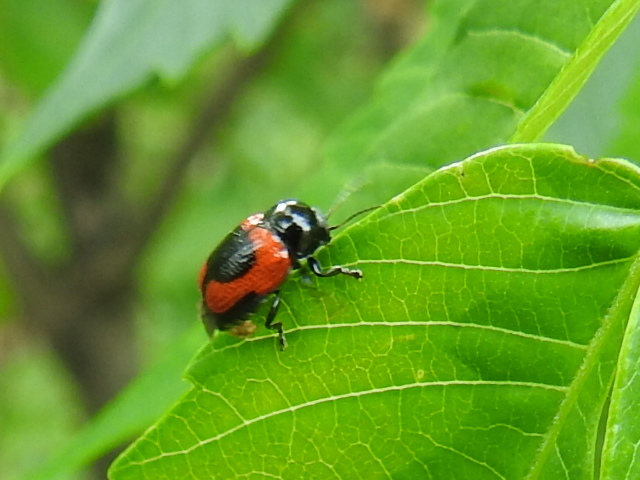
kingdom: Animalia
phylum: Arthropoda
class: Insecta
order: Coleoptera
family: Chrysomelidae
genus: Cryptocephalus
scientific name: Cryptocephalus notatus
